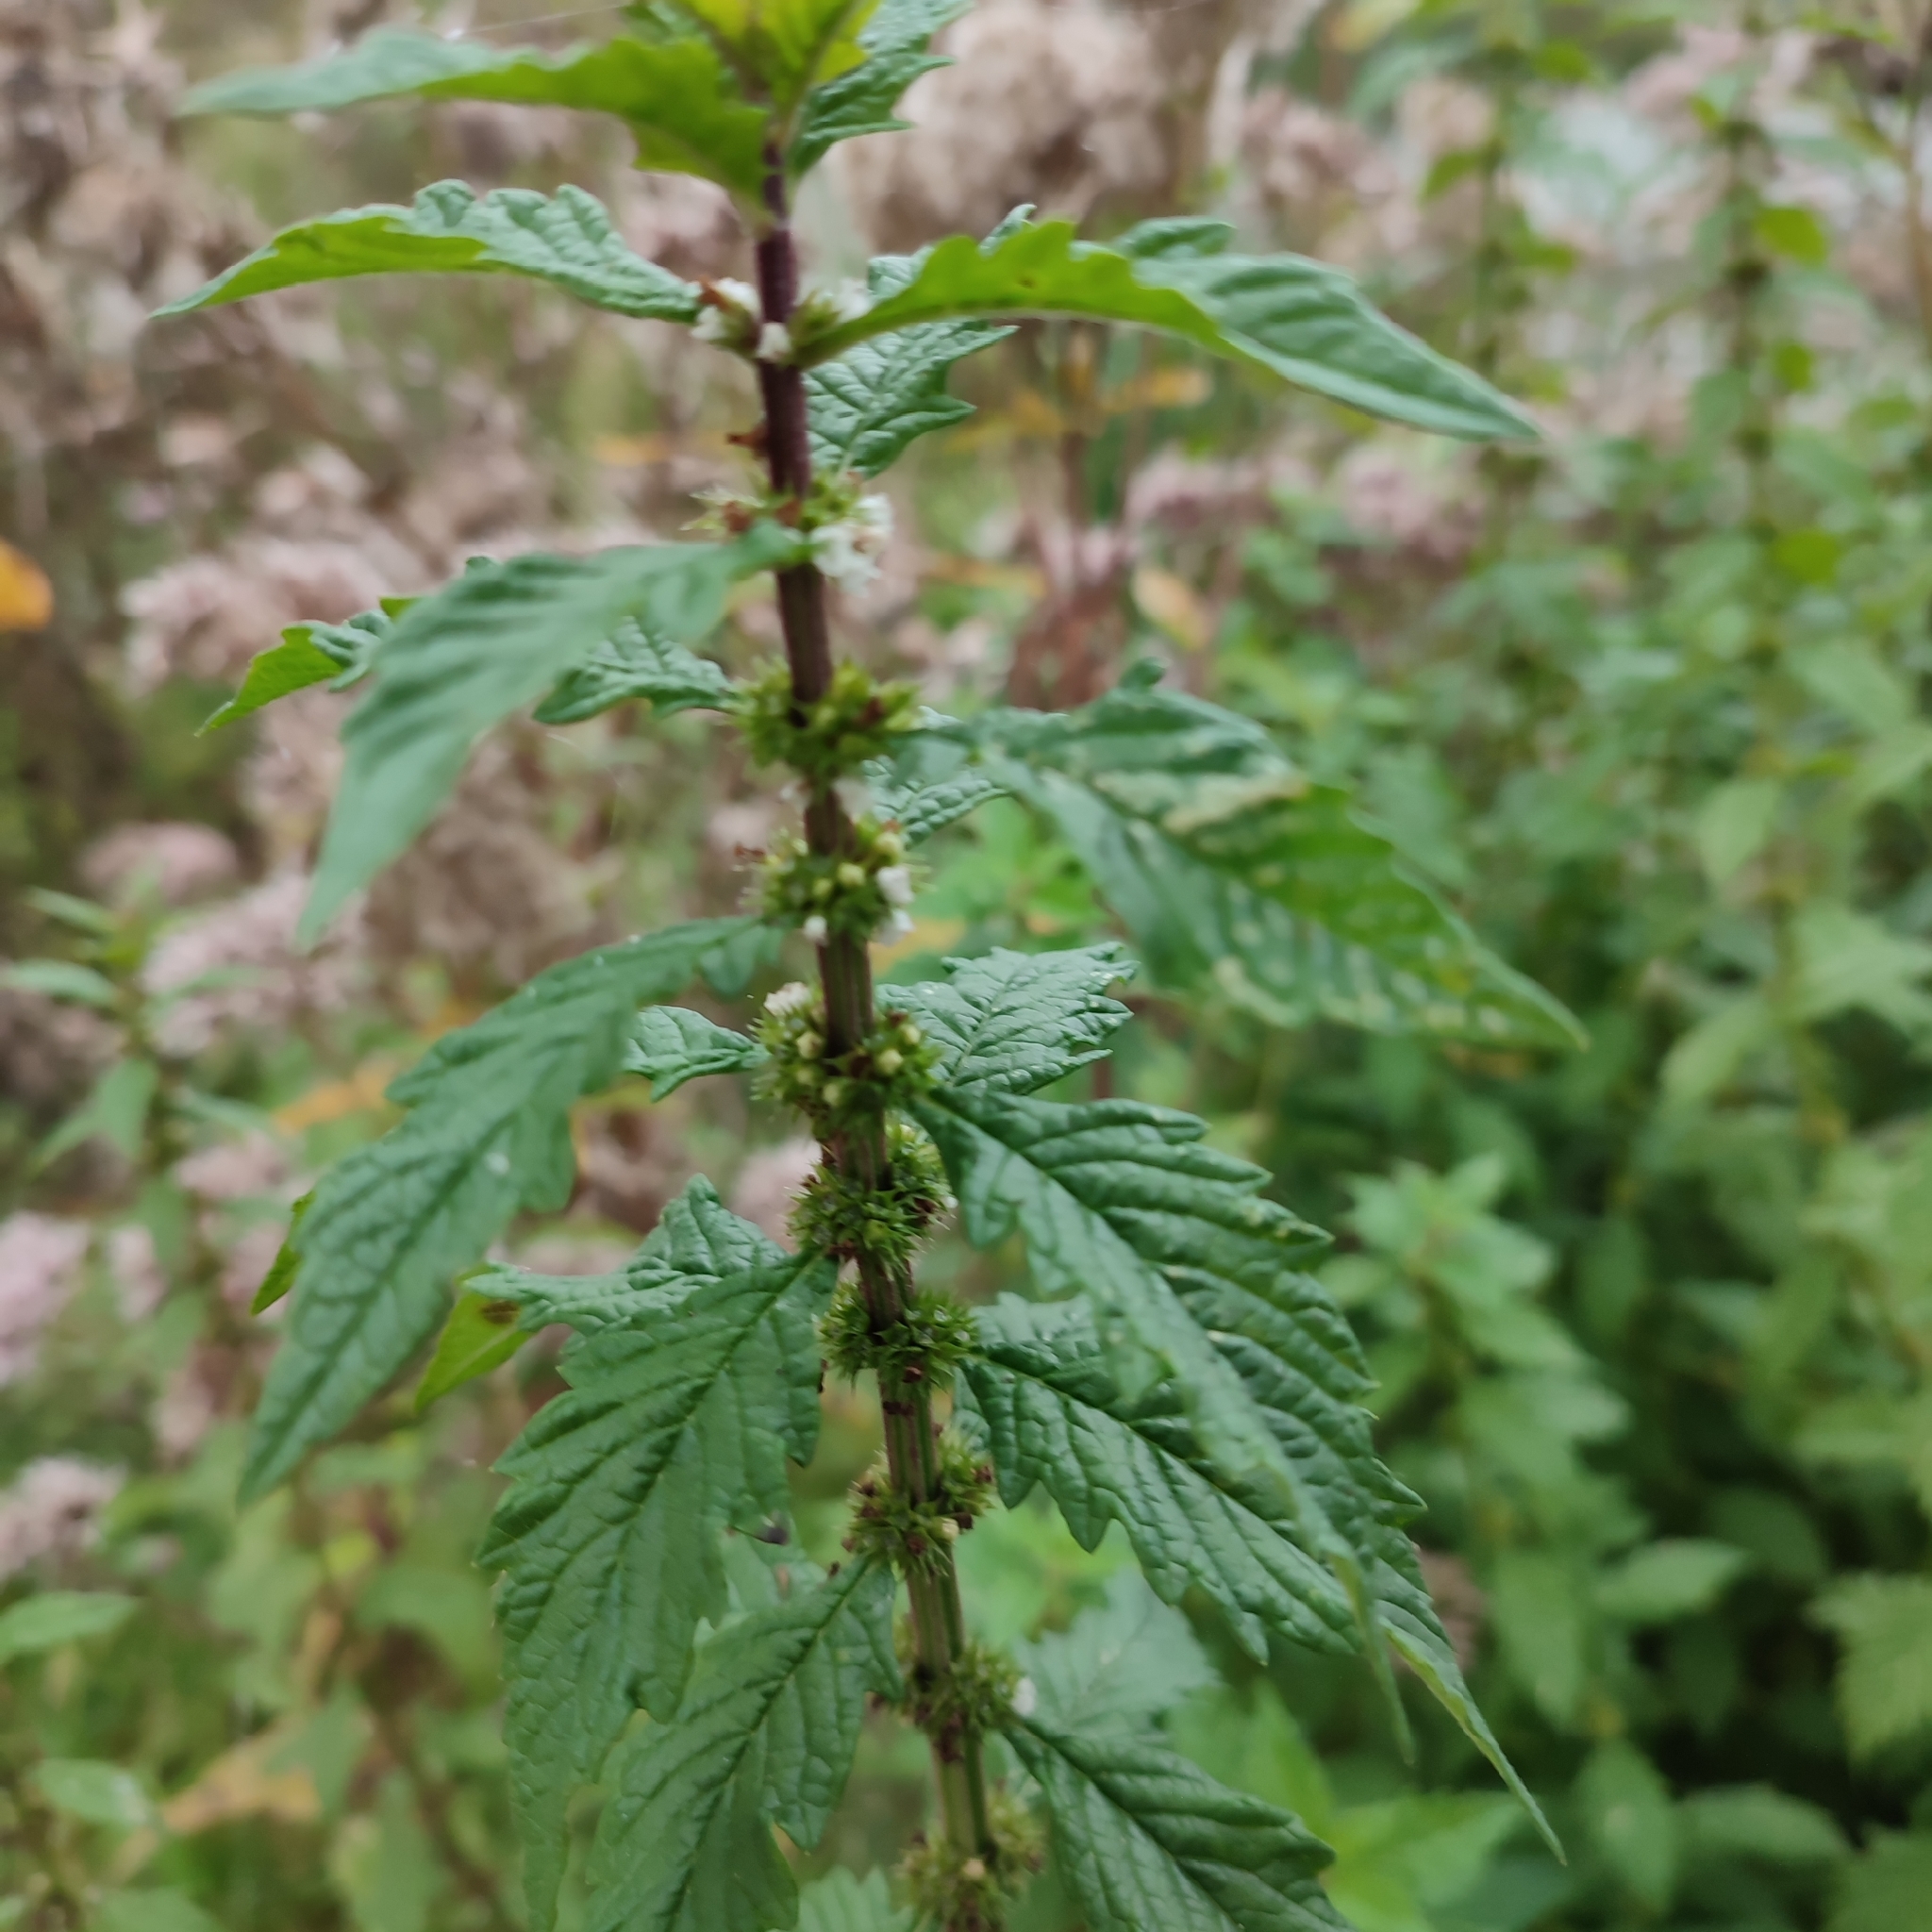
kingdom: Plantae
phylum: Tracheophyta
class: Magnoliopsida
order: Lamiales
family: Lamiaceae
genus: Lycopus
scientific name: Lycopus europaeus
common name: European bugleweed
